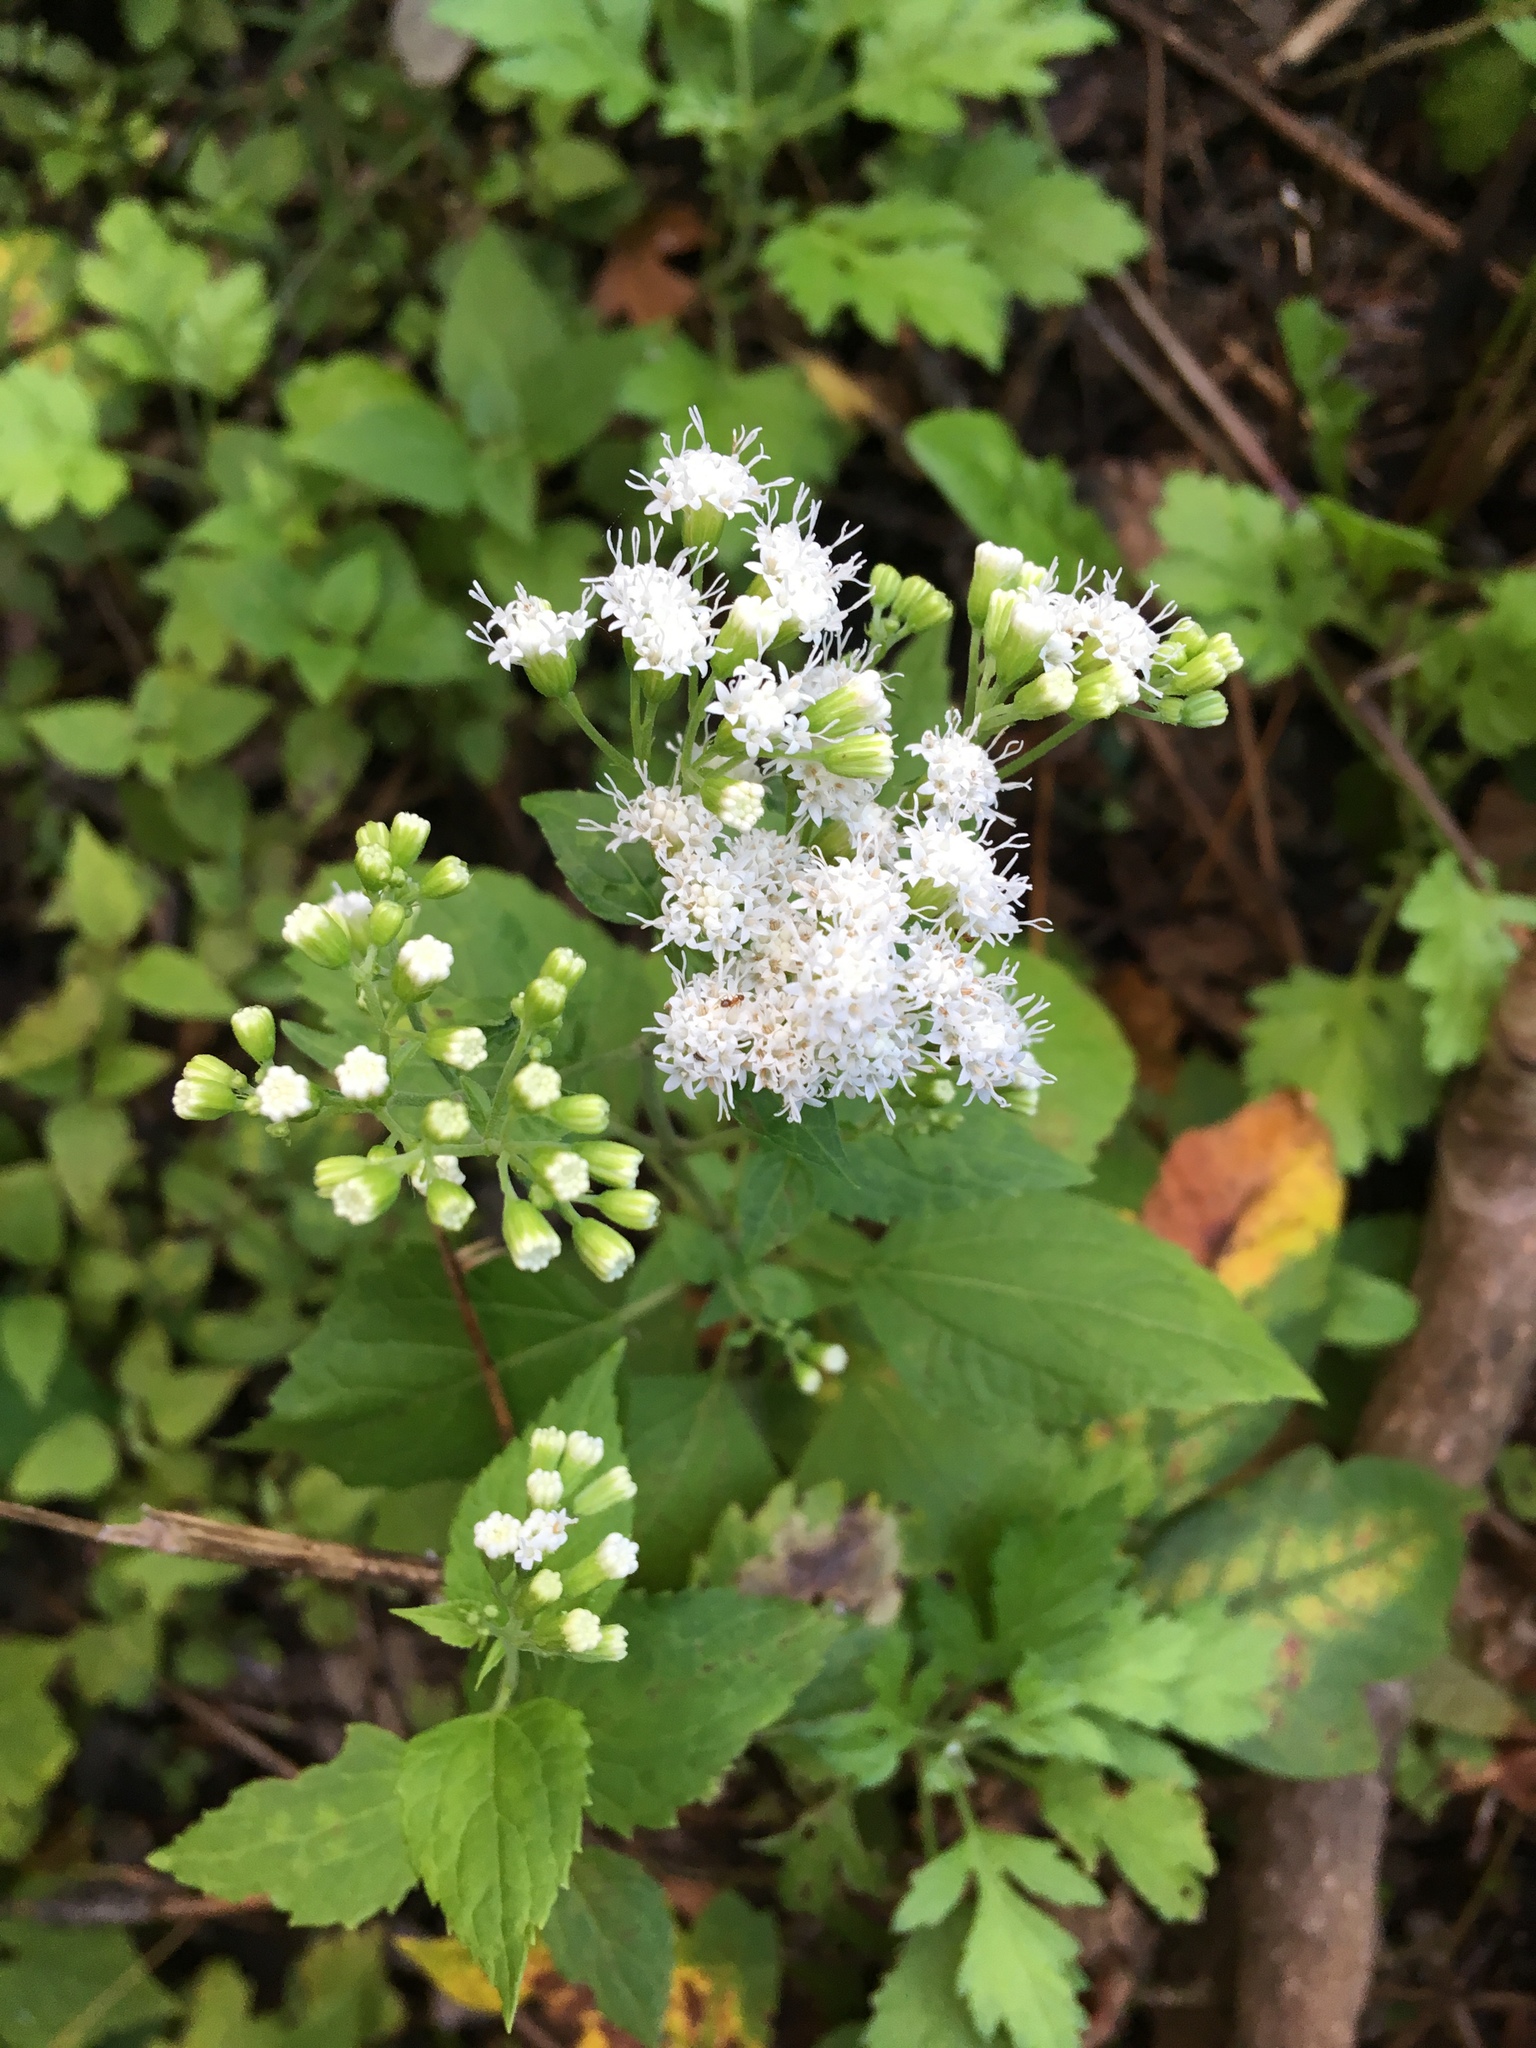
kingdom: Plantae
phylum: Tracheophyta
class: Magnoliopsida
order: Asterales
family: Asteraceae
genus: Ageratina
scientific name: Ageratina altissima
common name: White snakeroot
